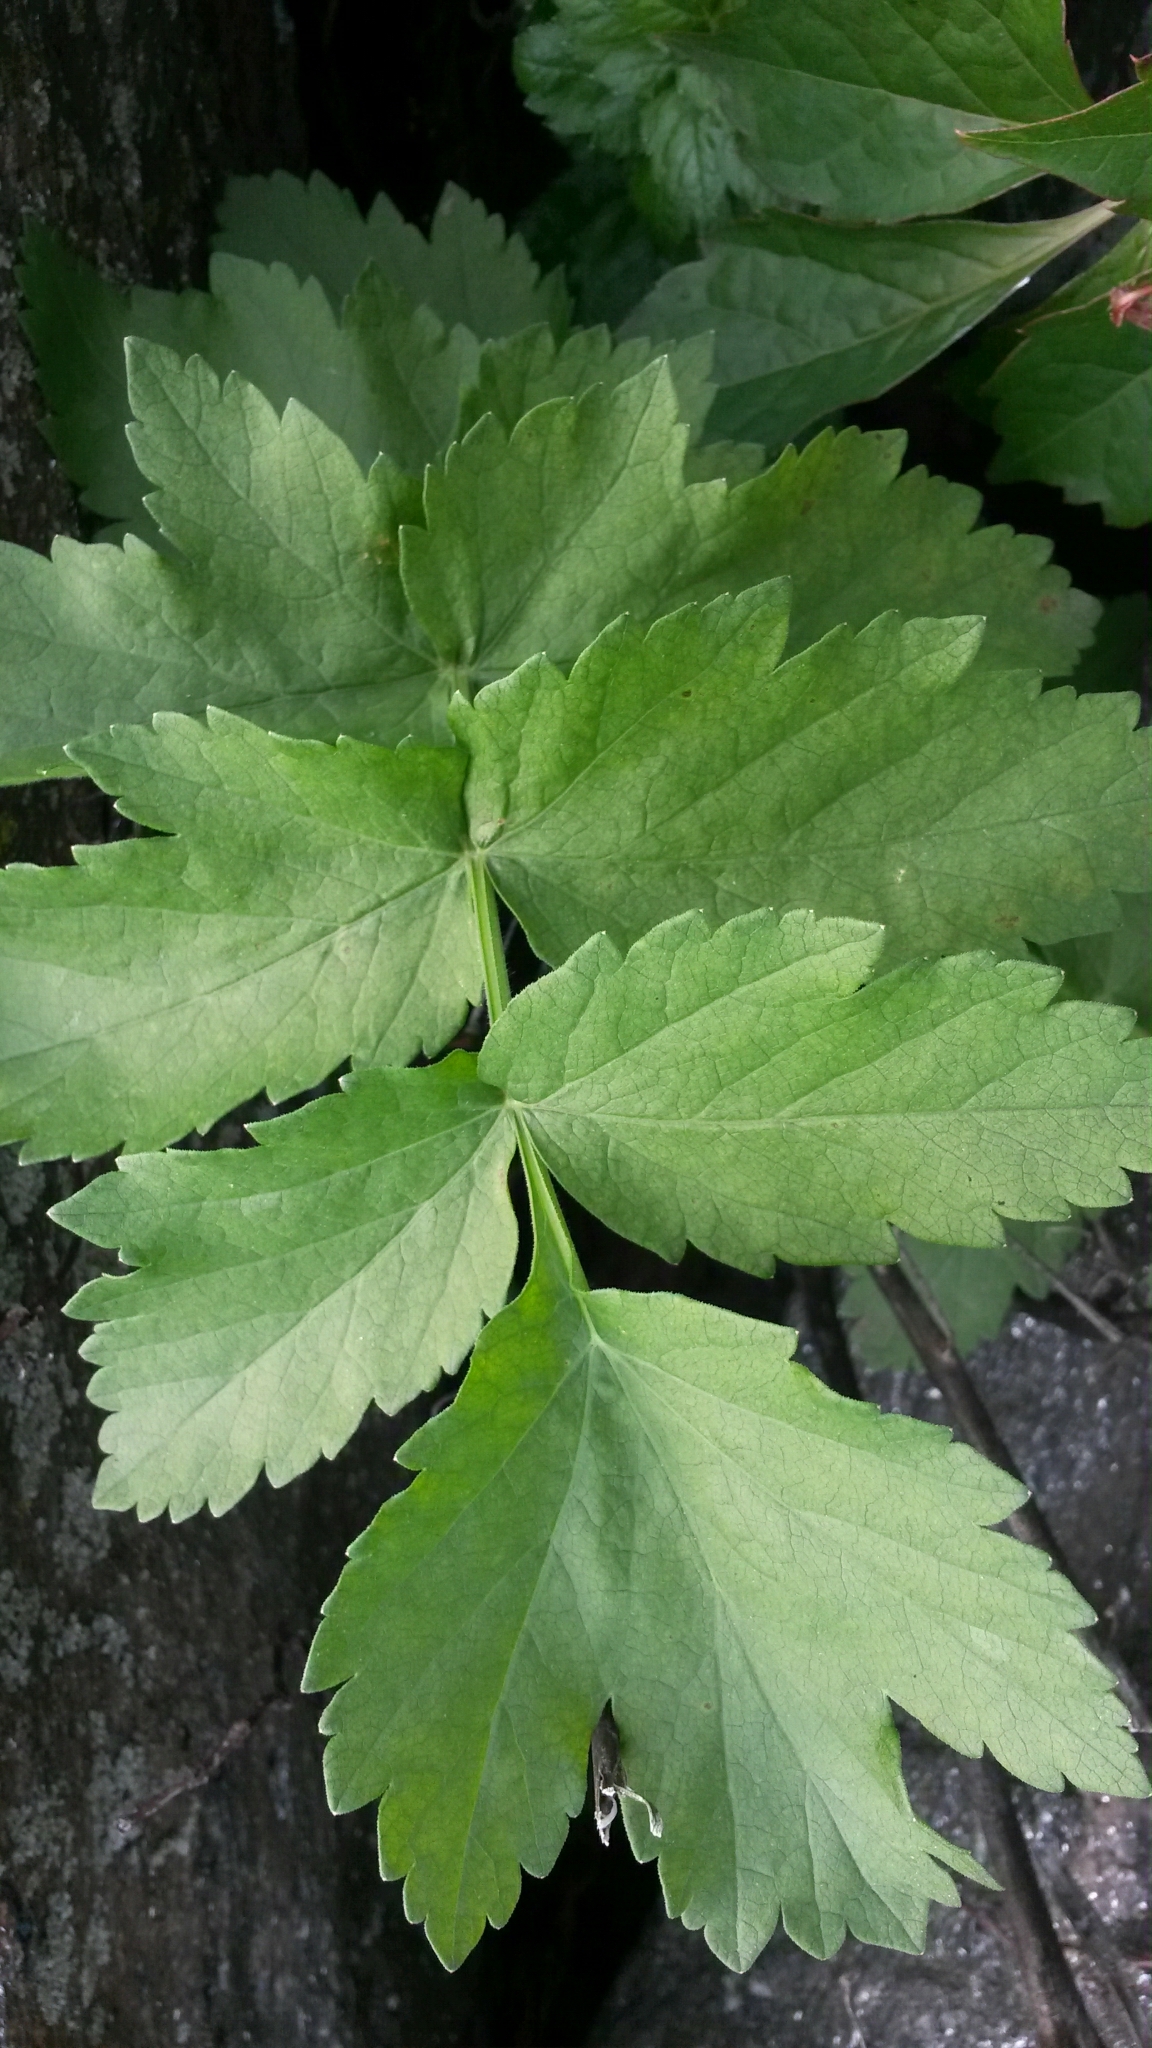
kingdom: Plantae
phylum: Tracheophyta
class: Magnoliopsida
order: Apiales
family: Apiaceae
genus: Pastinaca
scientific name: Pastinaca sativa
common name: Wild parsnip
